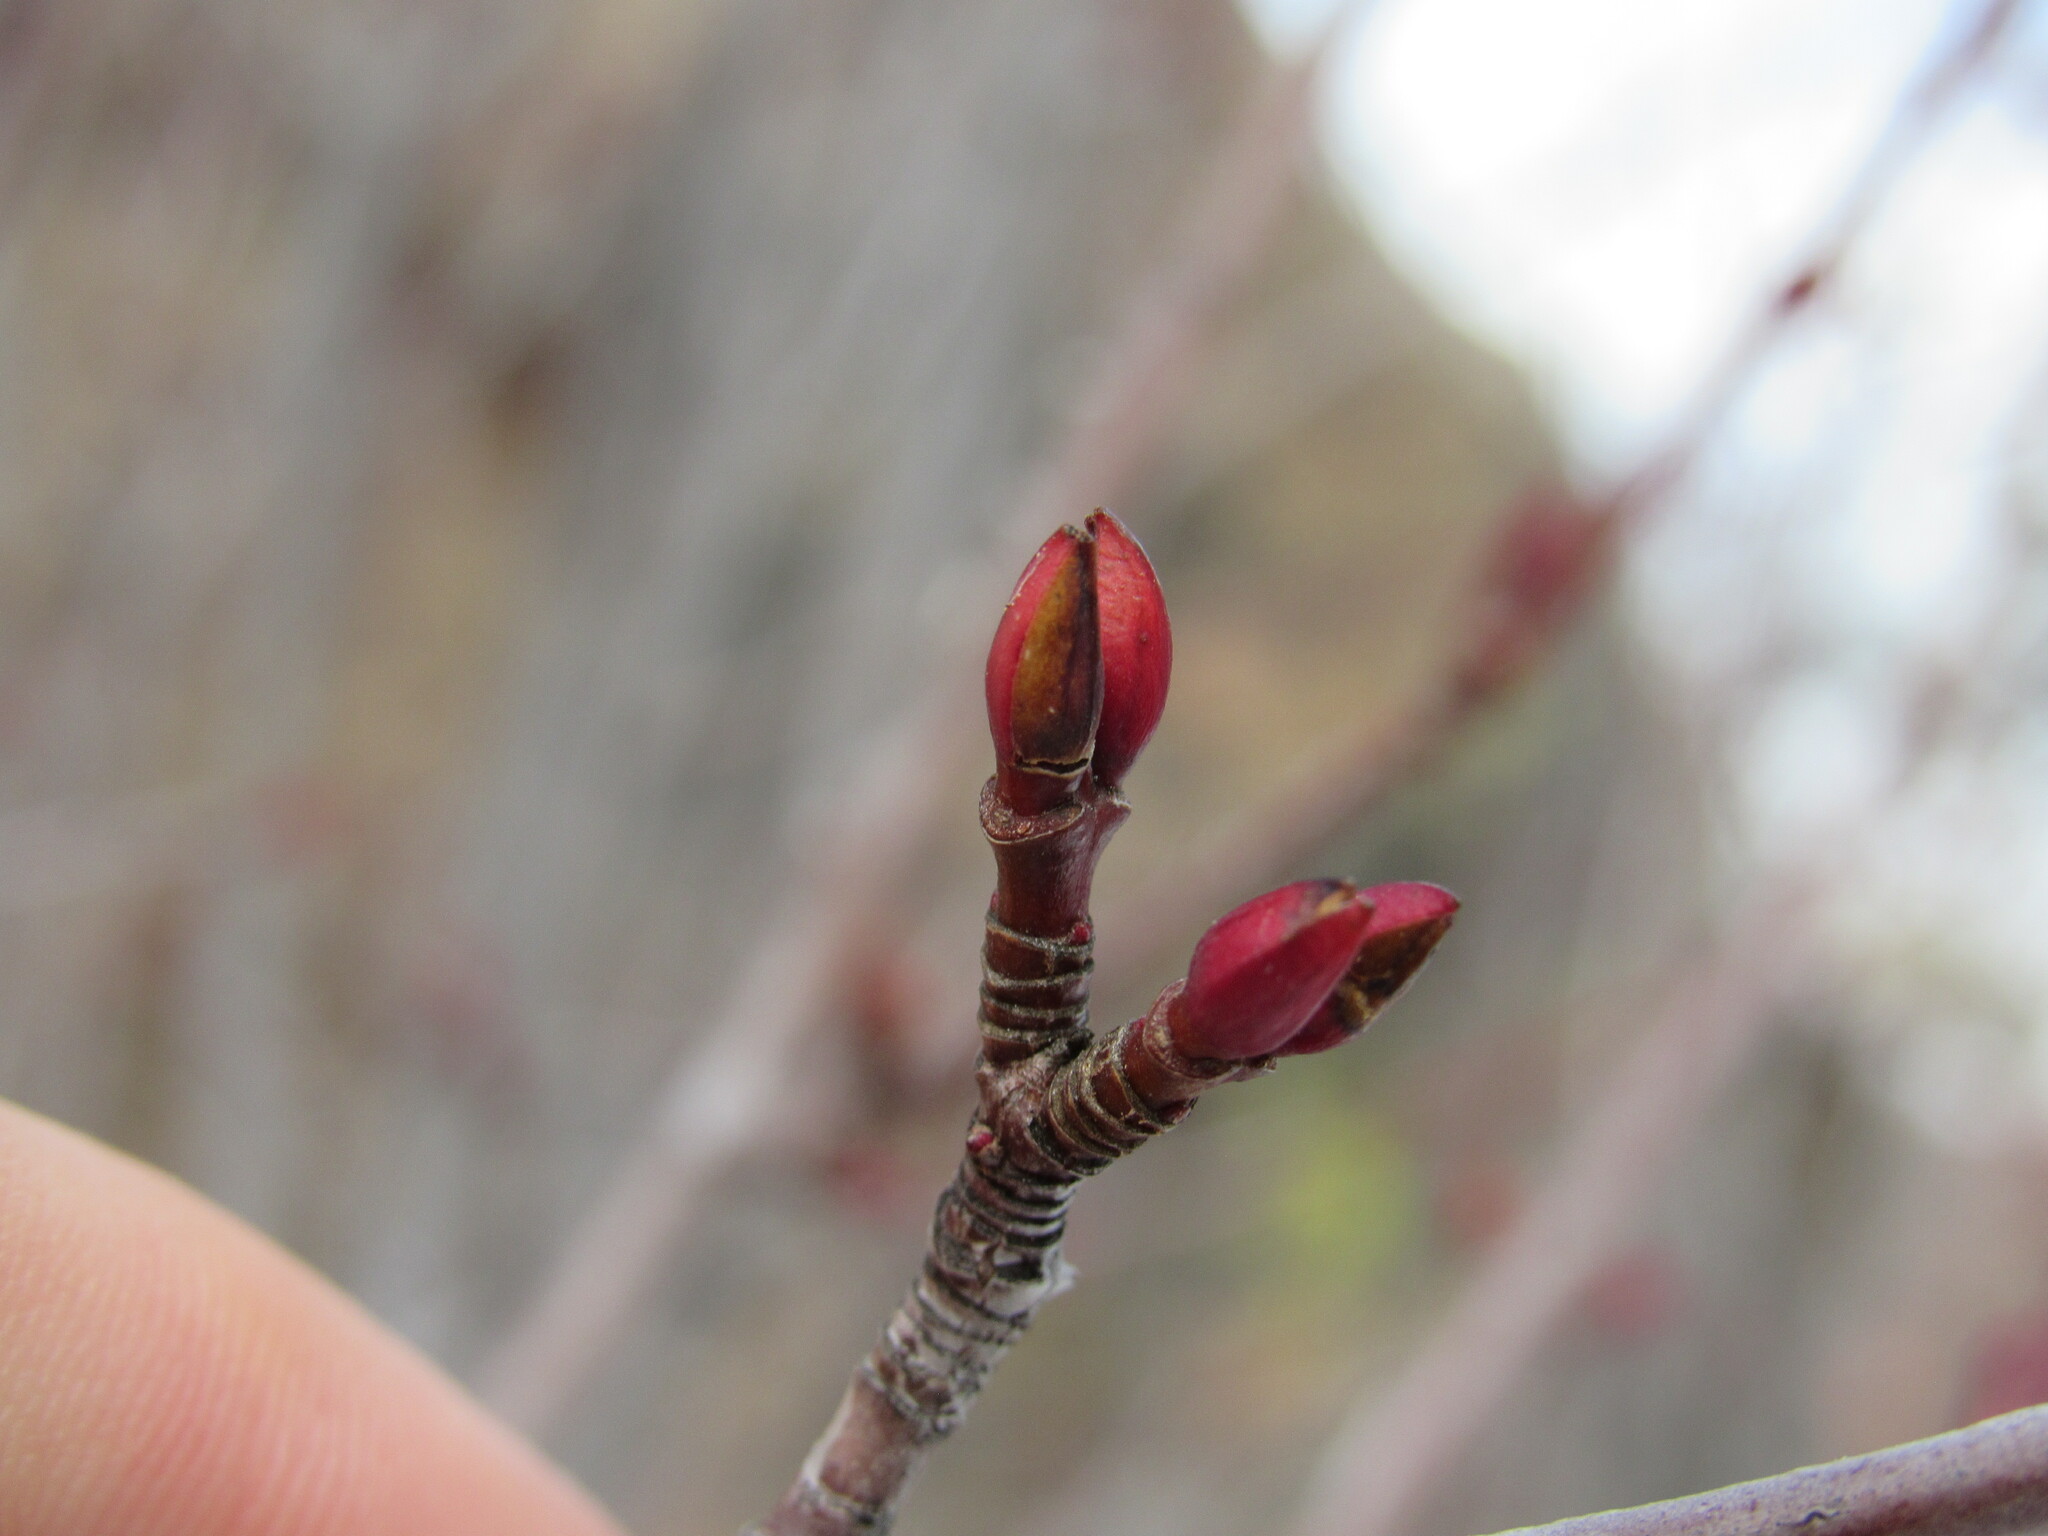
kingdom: Plantae
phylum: Tracheophyta
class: Magnoliopsida
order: Sapindales
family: Sapindaceae
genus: Acer
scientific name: Acer glabrum
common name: Rocky mountain maple
